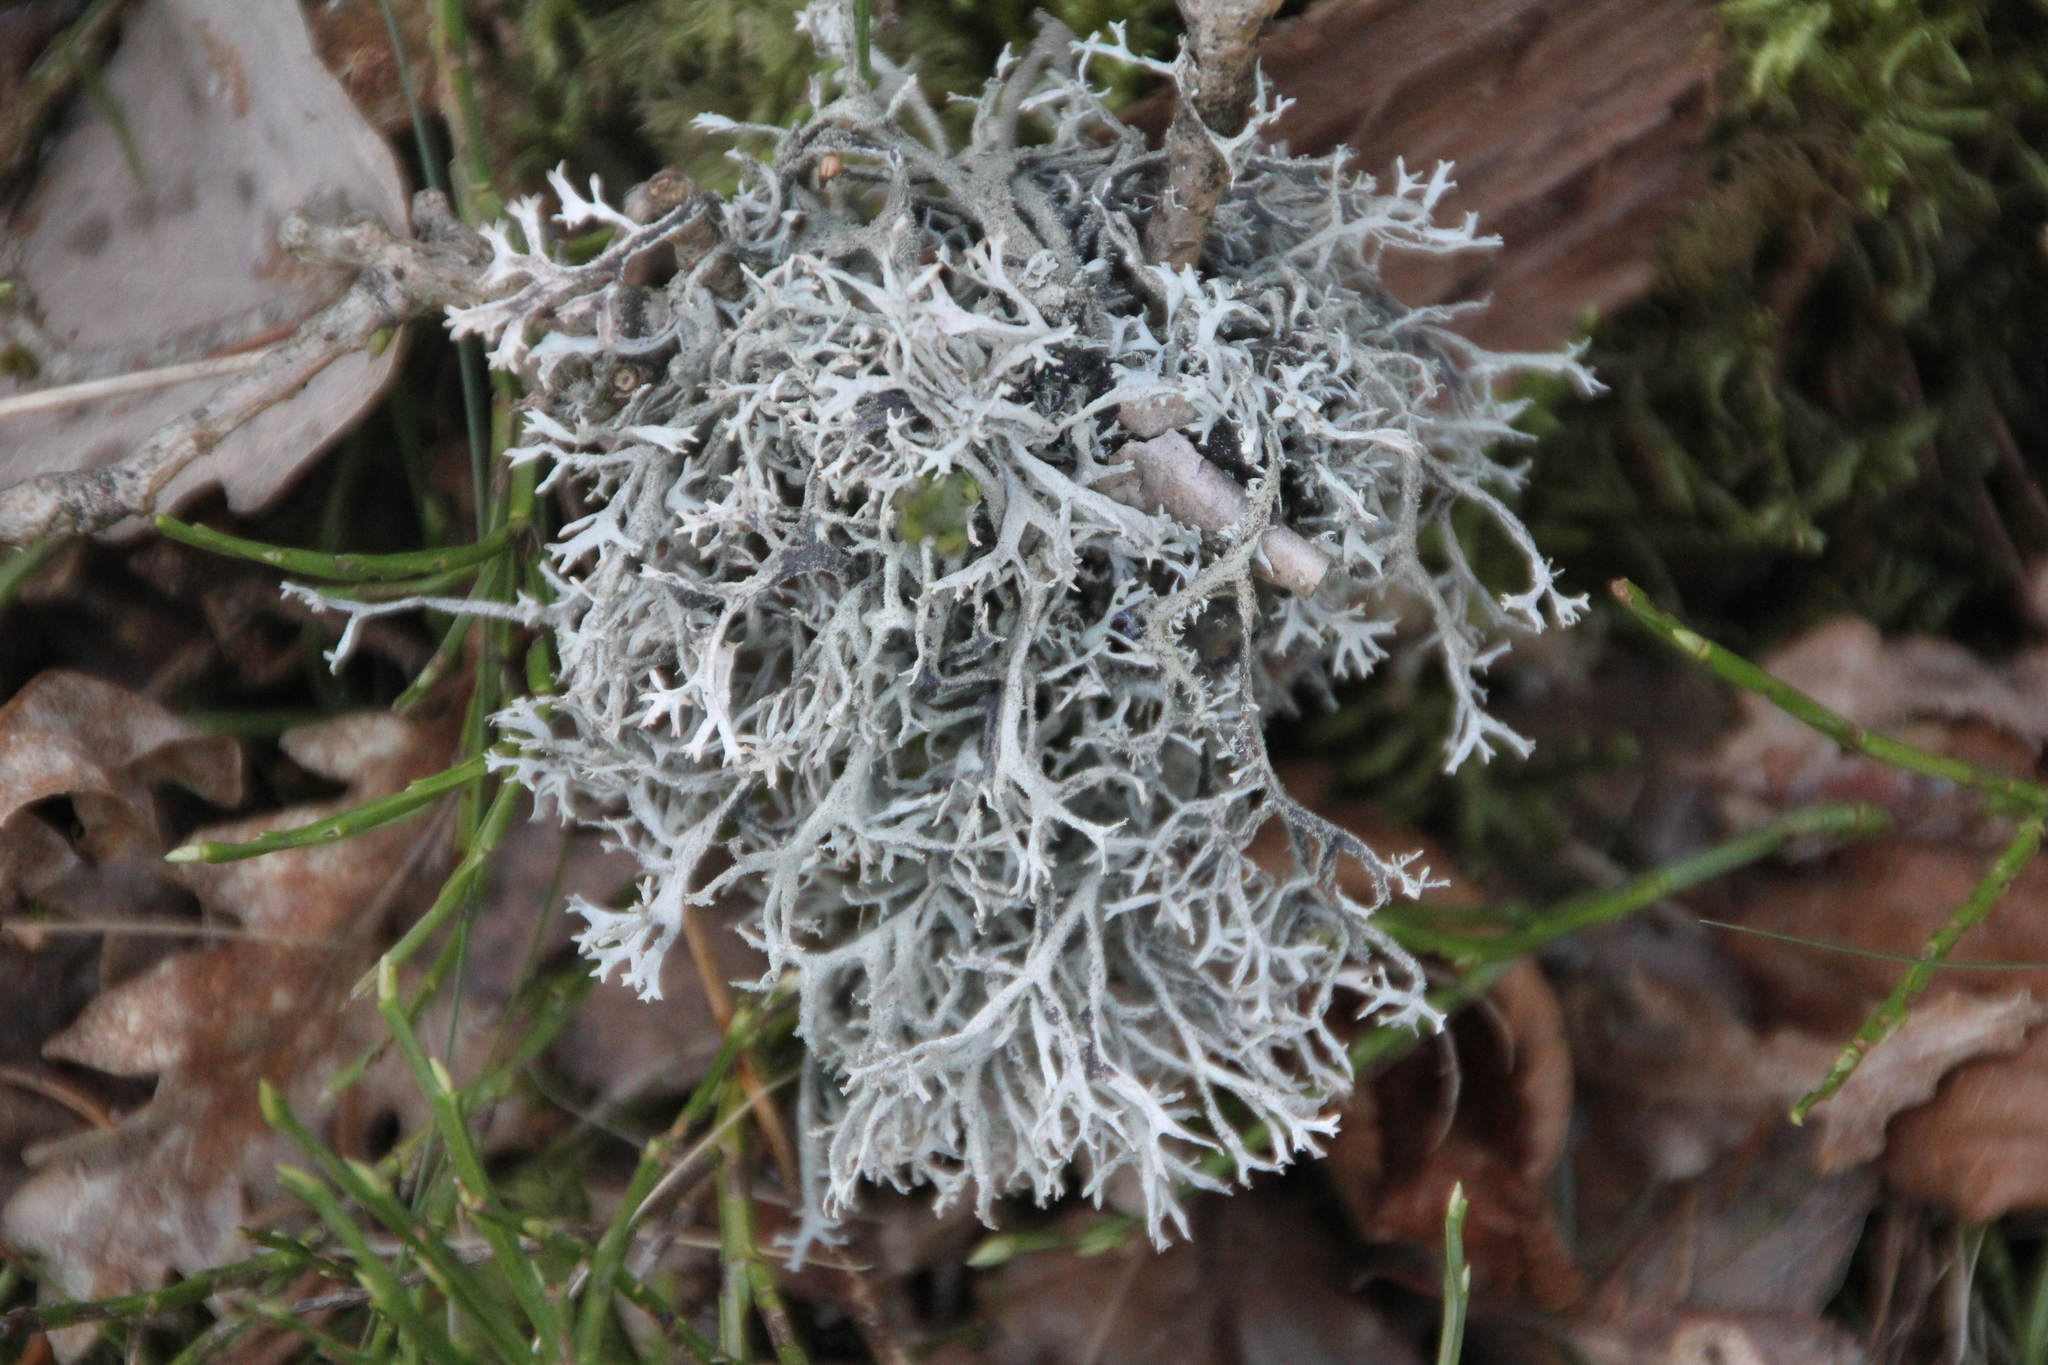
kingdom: Fungi
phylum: Ascomycota
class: Lecanoromycetes
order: Lecanorales
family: Parmeliaceae
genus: Pseudevernia
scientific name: Pseudevernia furfuracea
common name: Tree moss
